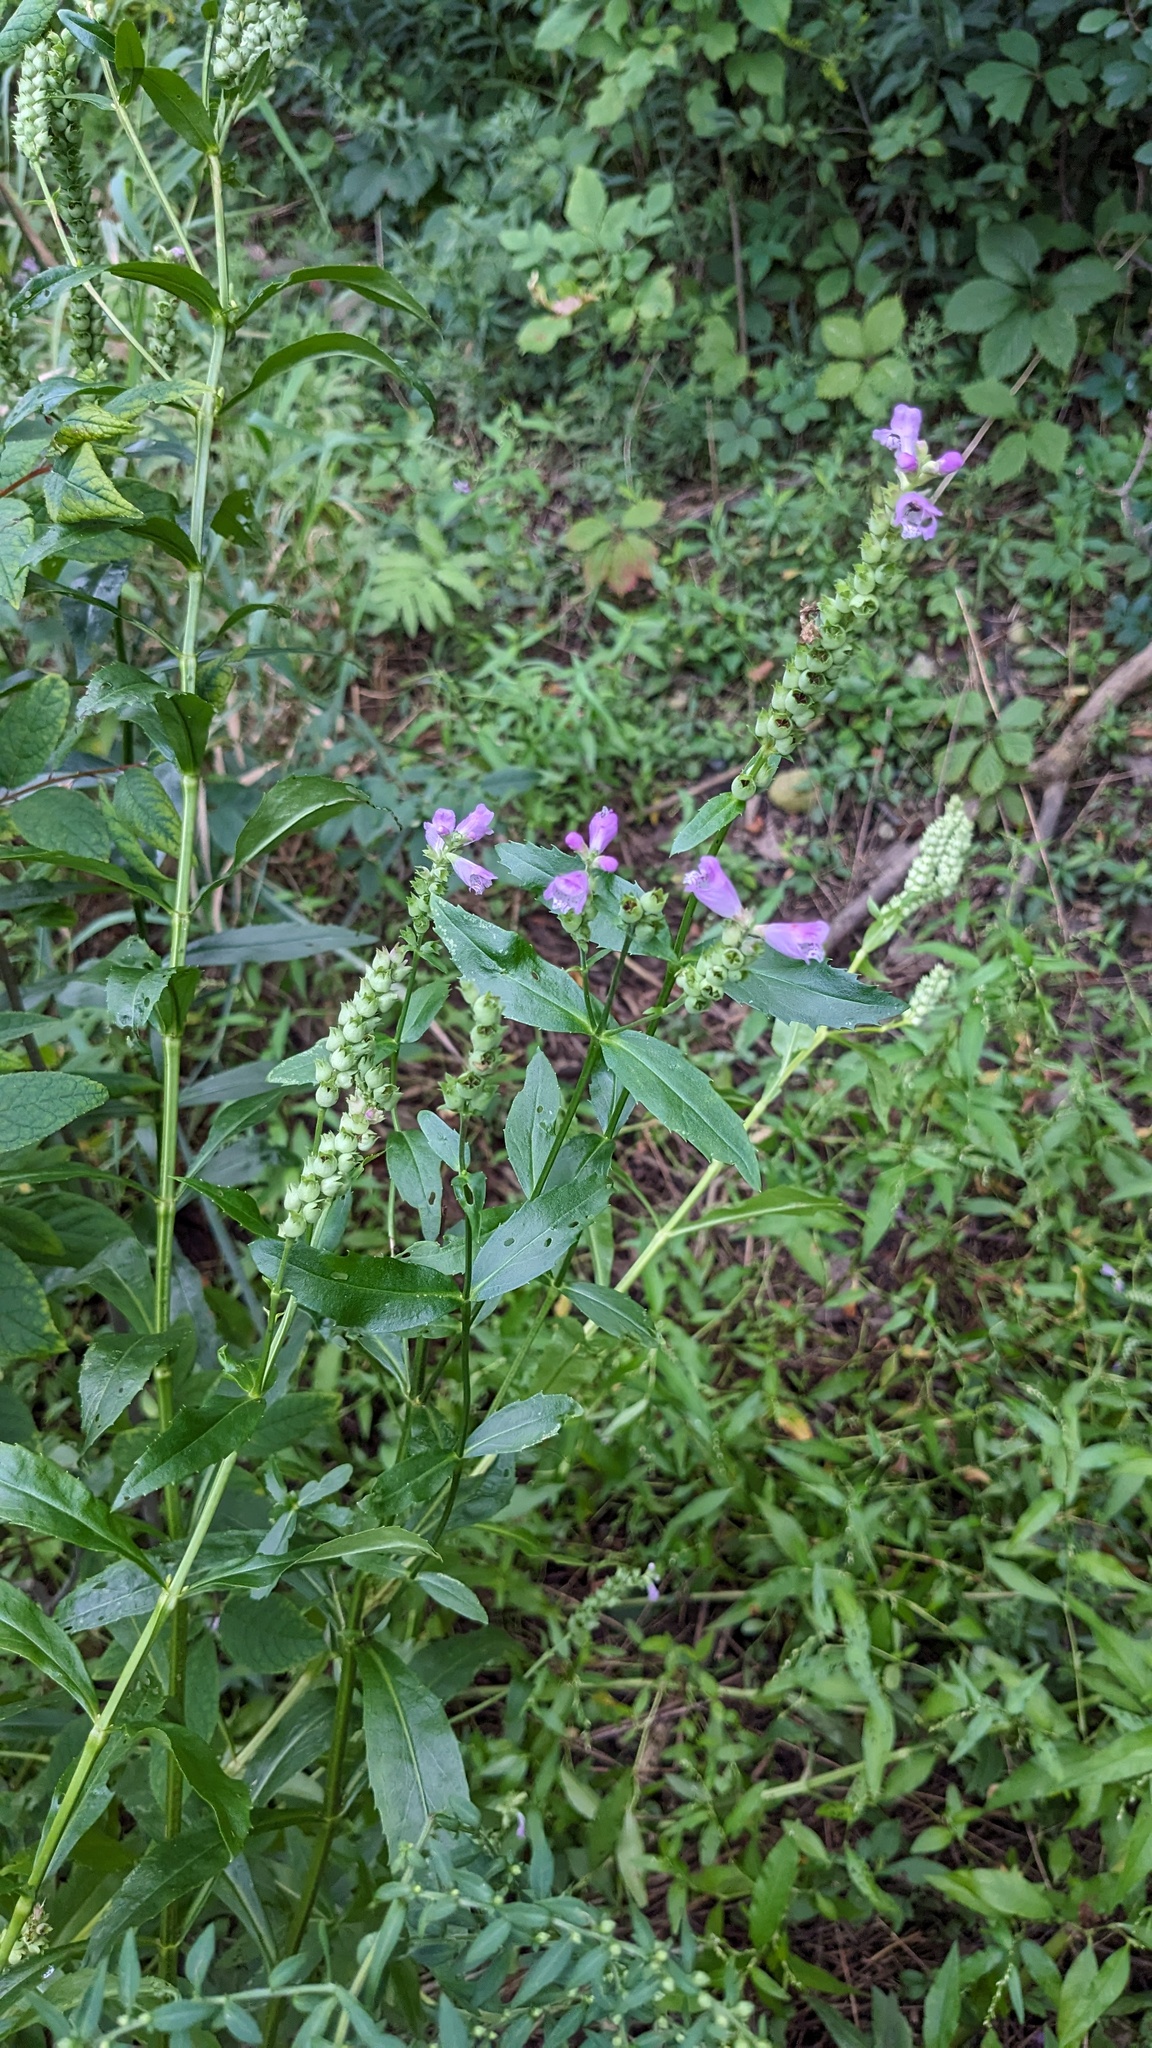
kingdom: Plantae
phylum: Tracheophyta
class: Magnoliopsida
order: Lamiales
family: Lamiaceae
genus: Physostegia
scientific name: Physostegia virginiana
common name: Obedient-plant
